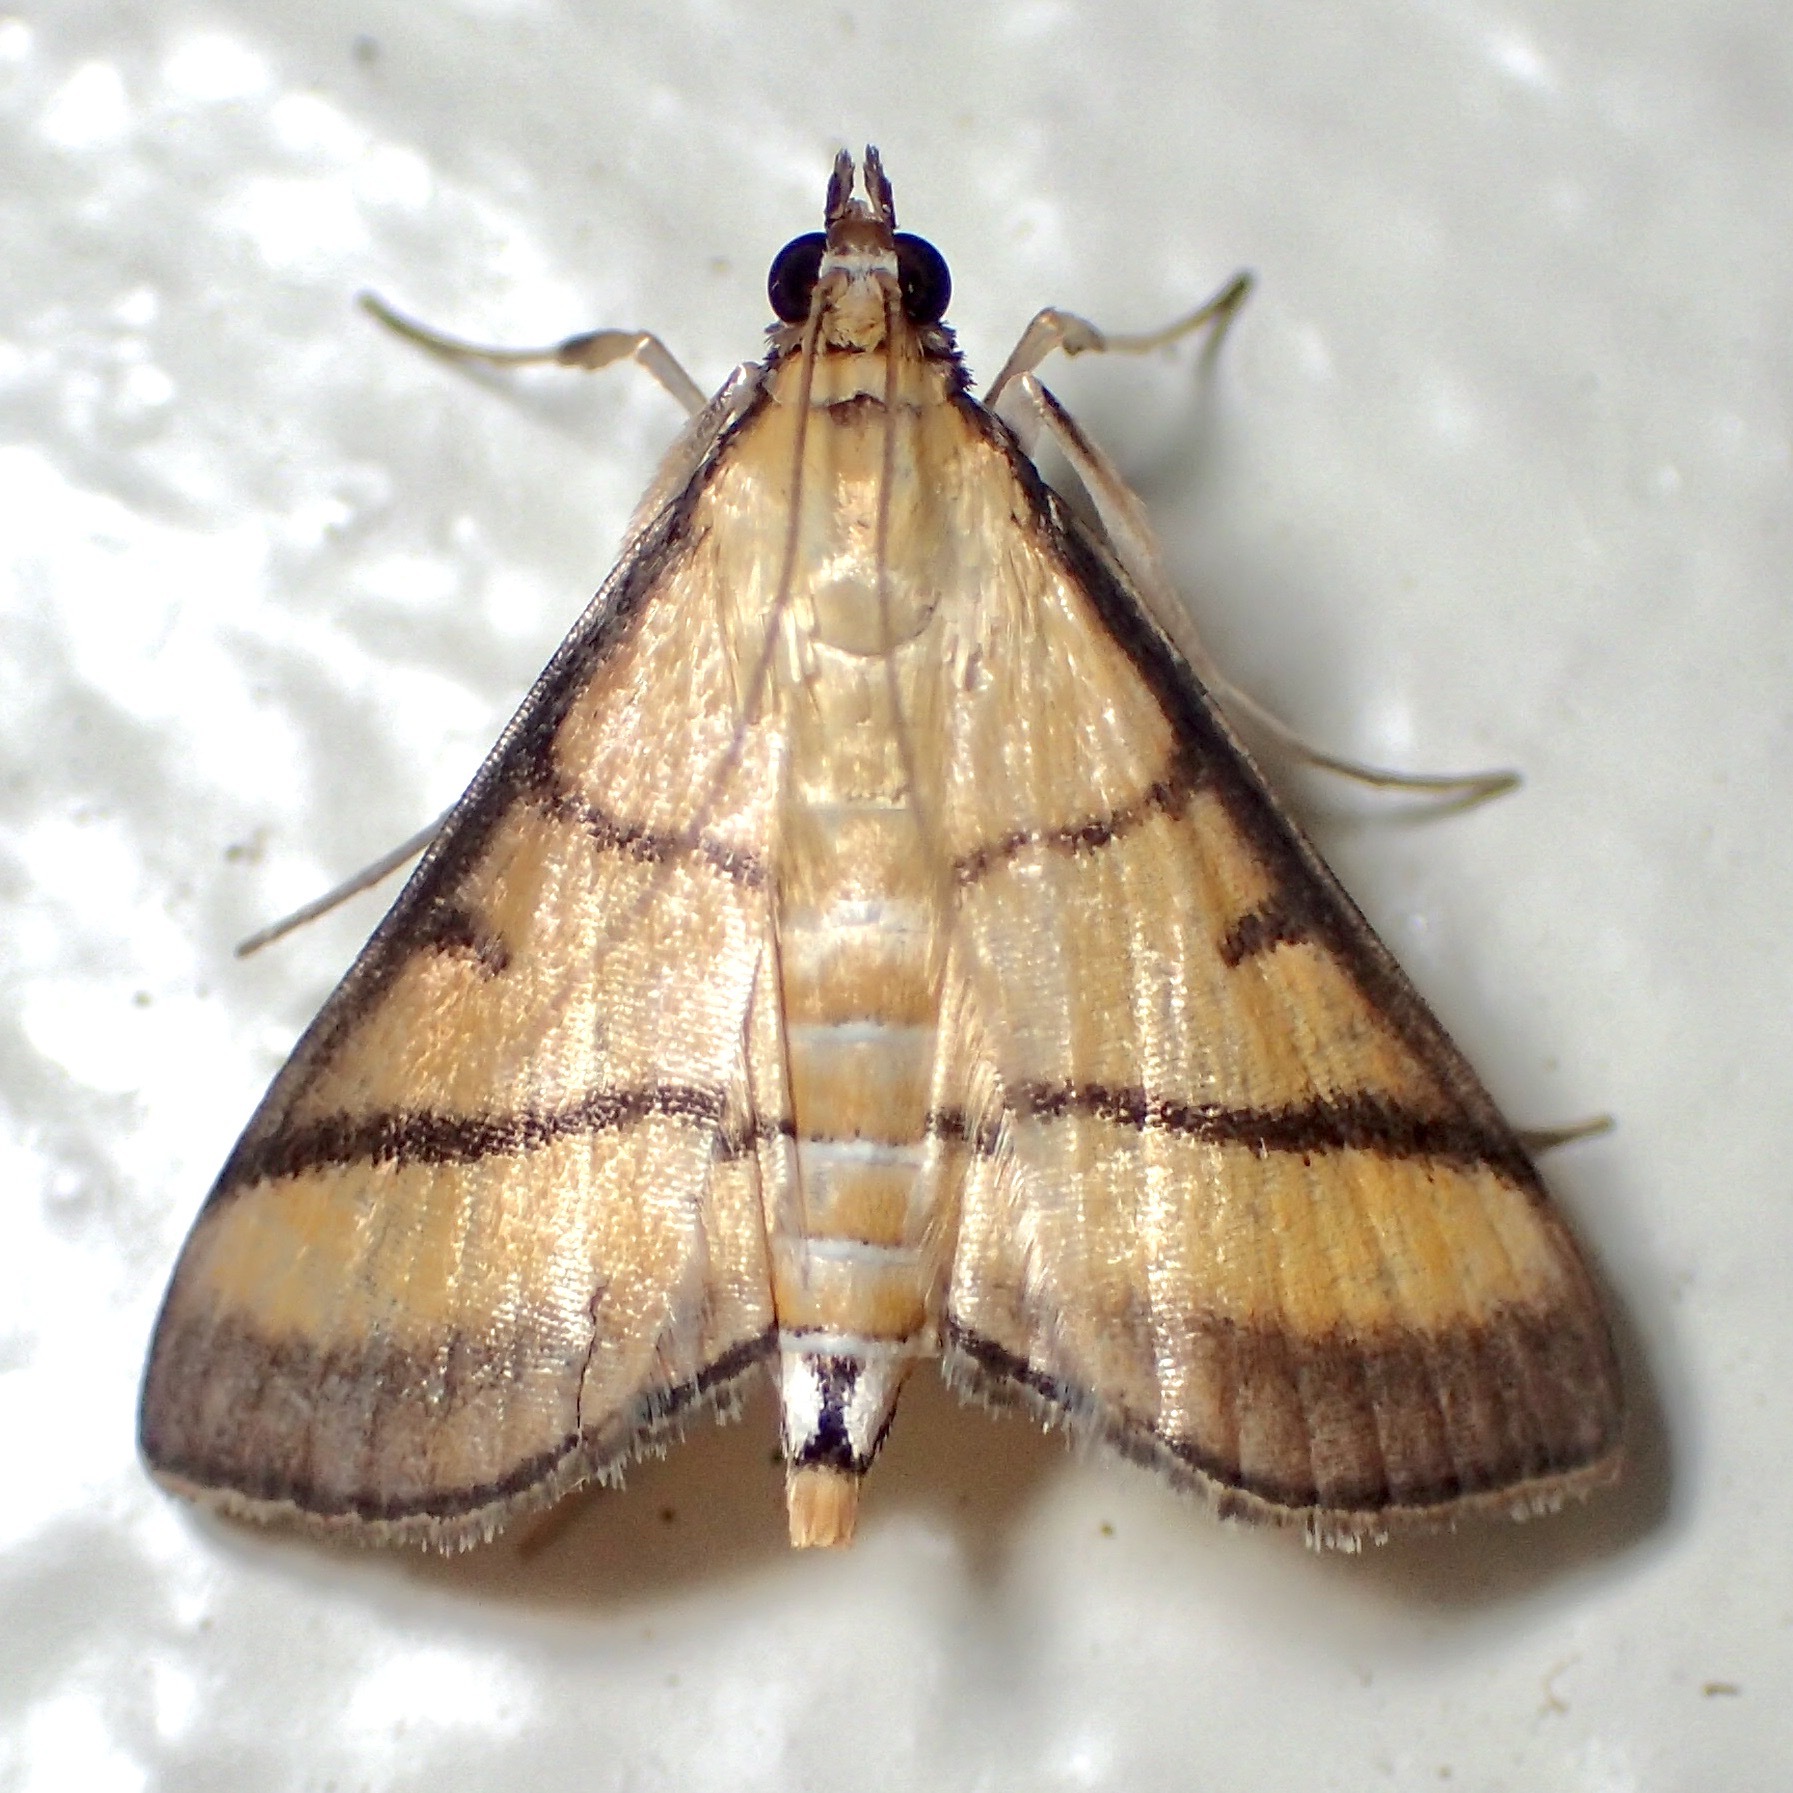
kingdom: Animalia
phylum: Arthropoda
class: Insecta
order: Lepidoptera
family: Crambidae
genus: Cnaphalocrocis
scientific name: Cnaphalocrocis medinalis
